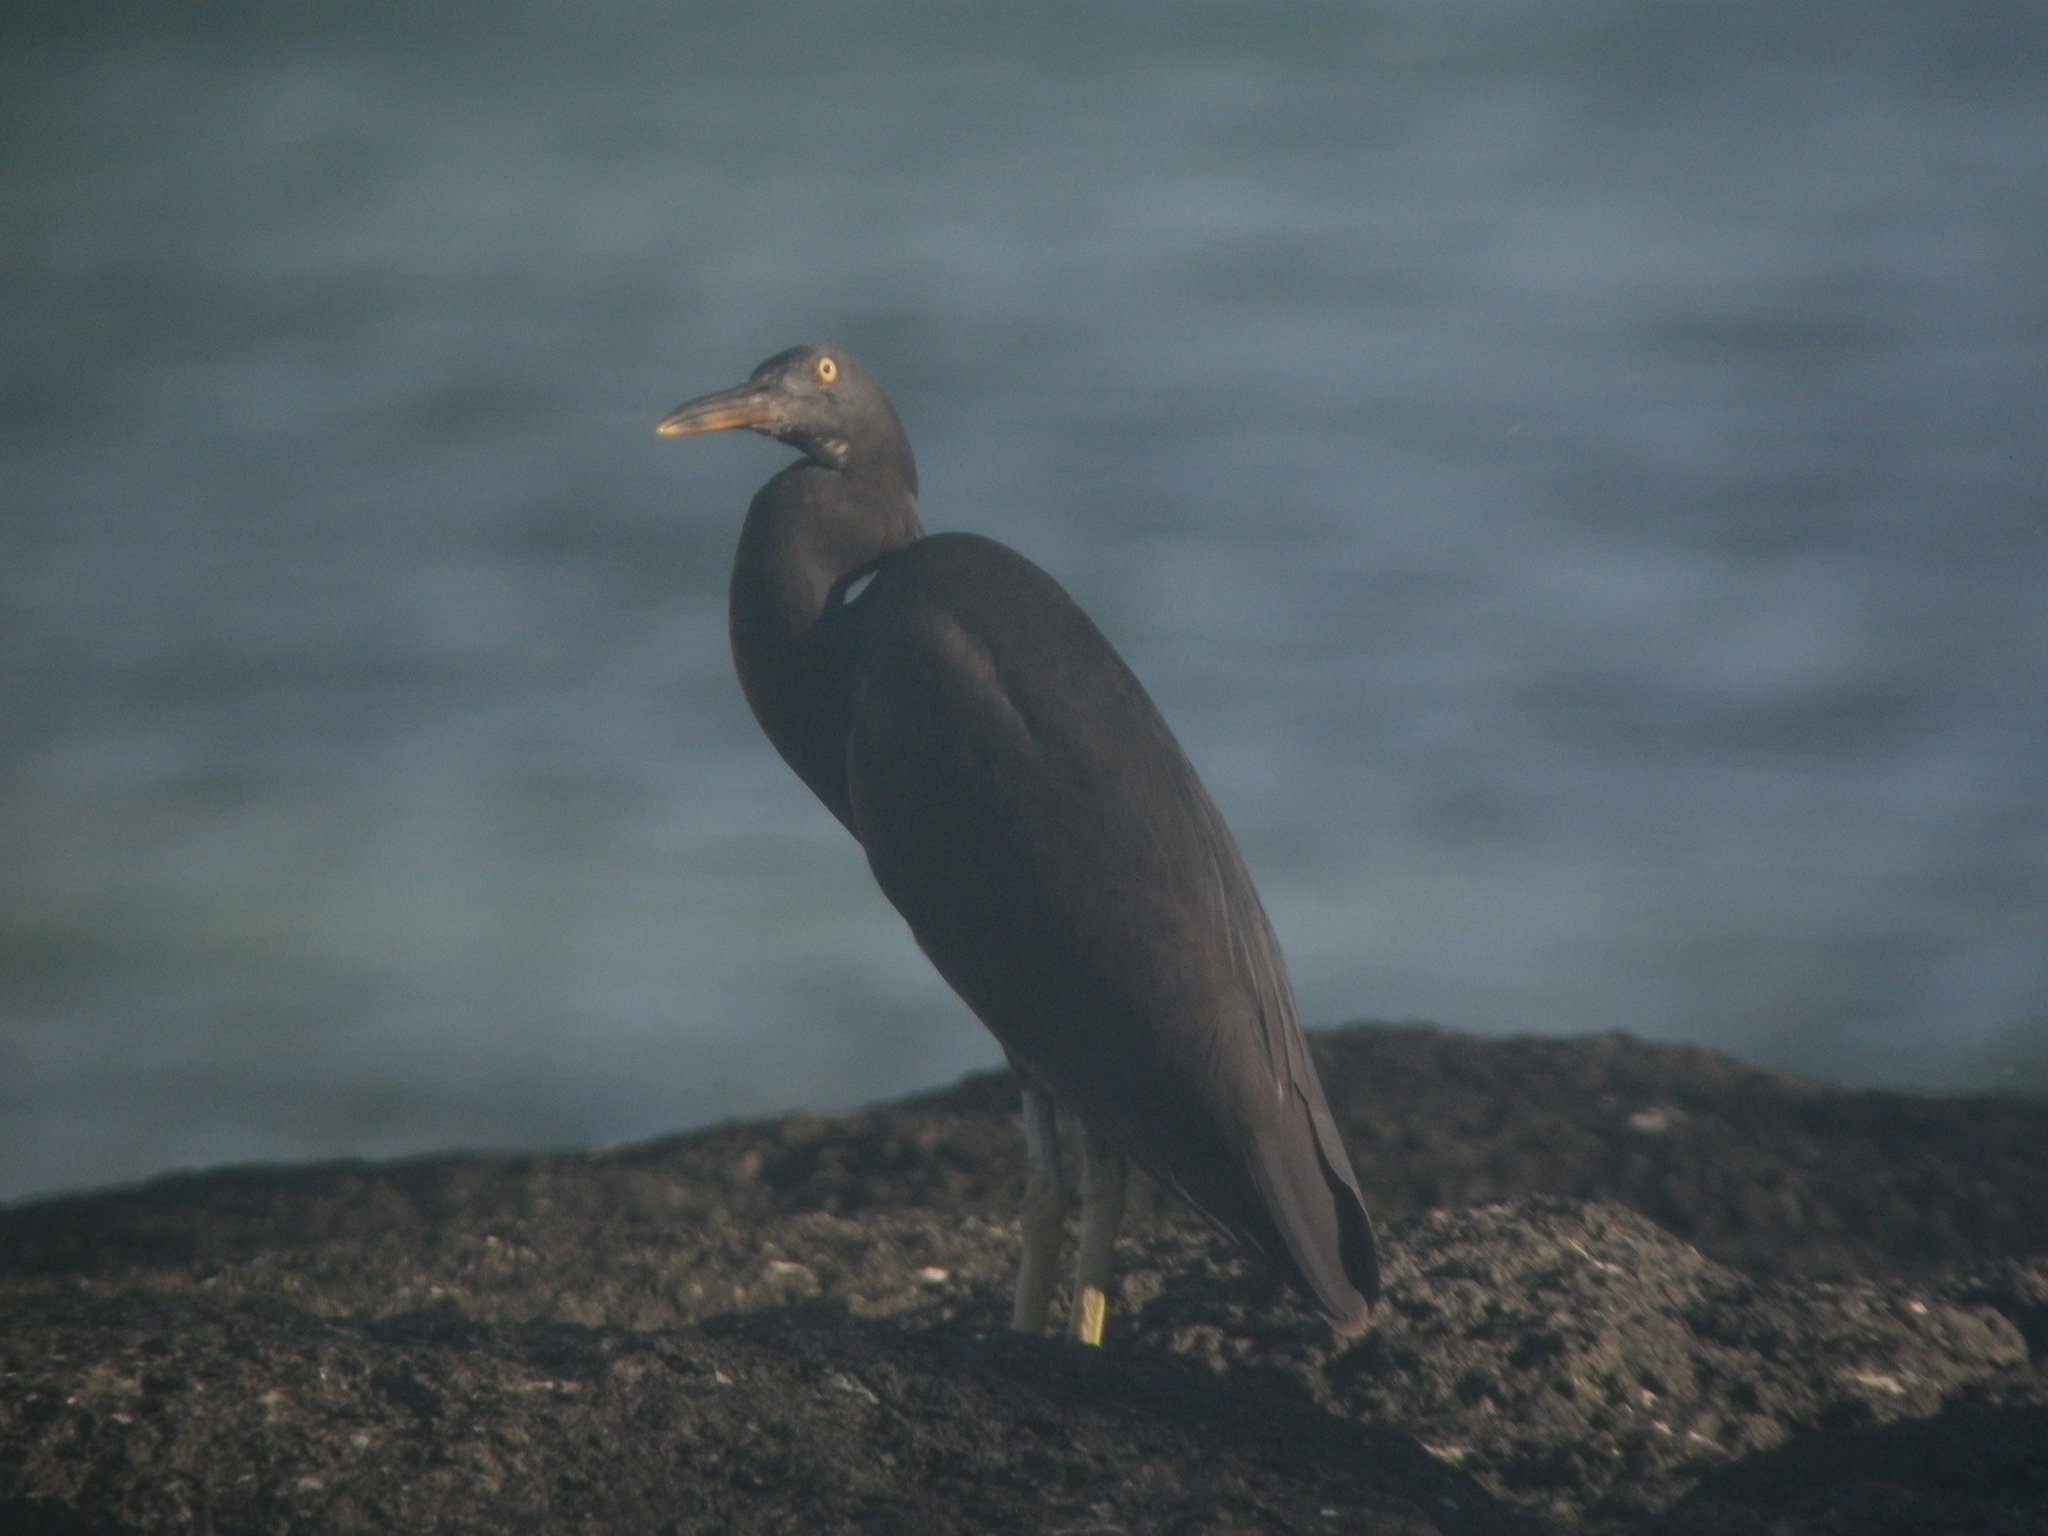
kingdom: Animalia
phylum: Chordata
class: Aves
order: Pelecaniformes
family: Ardeidae
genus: Egretta
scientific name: Egretta sacra
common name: Pacific reef heron
